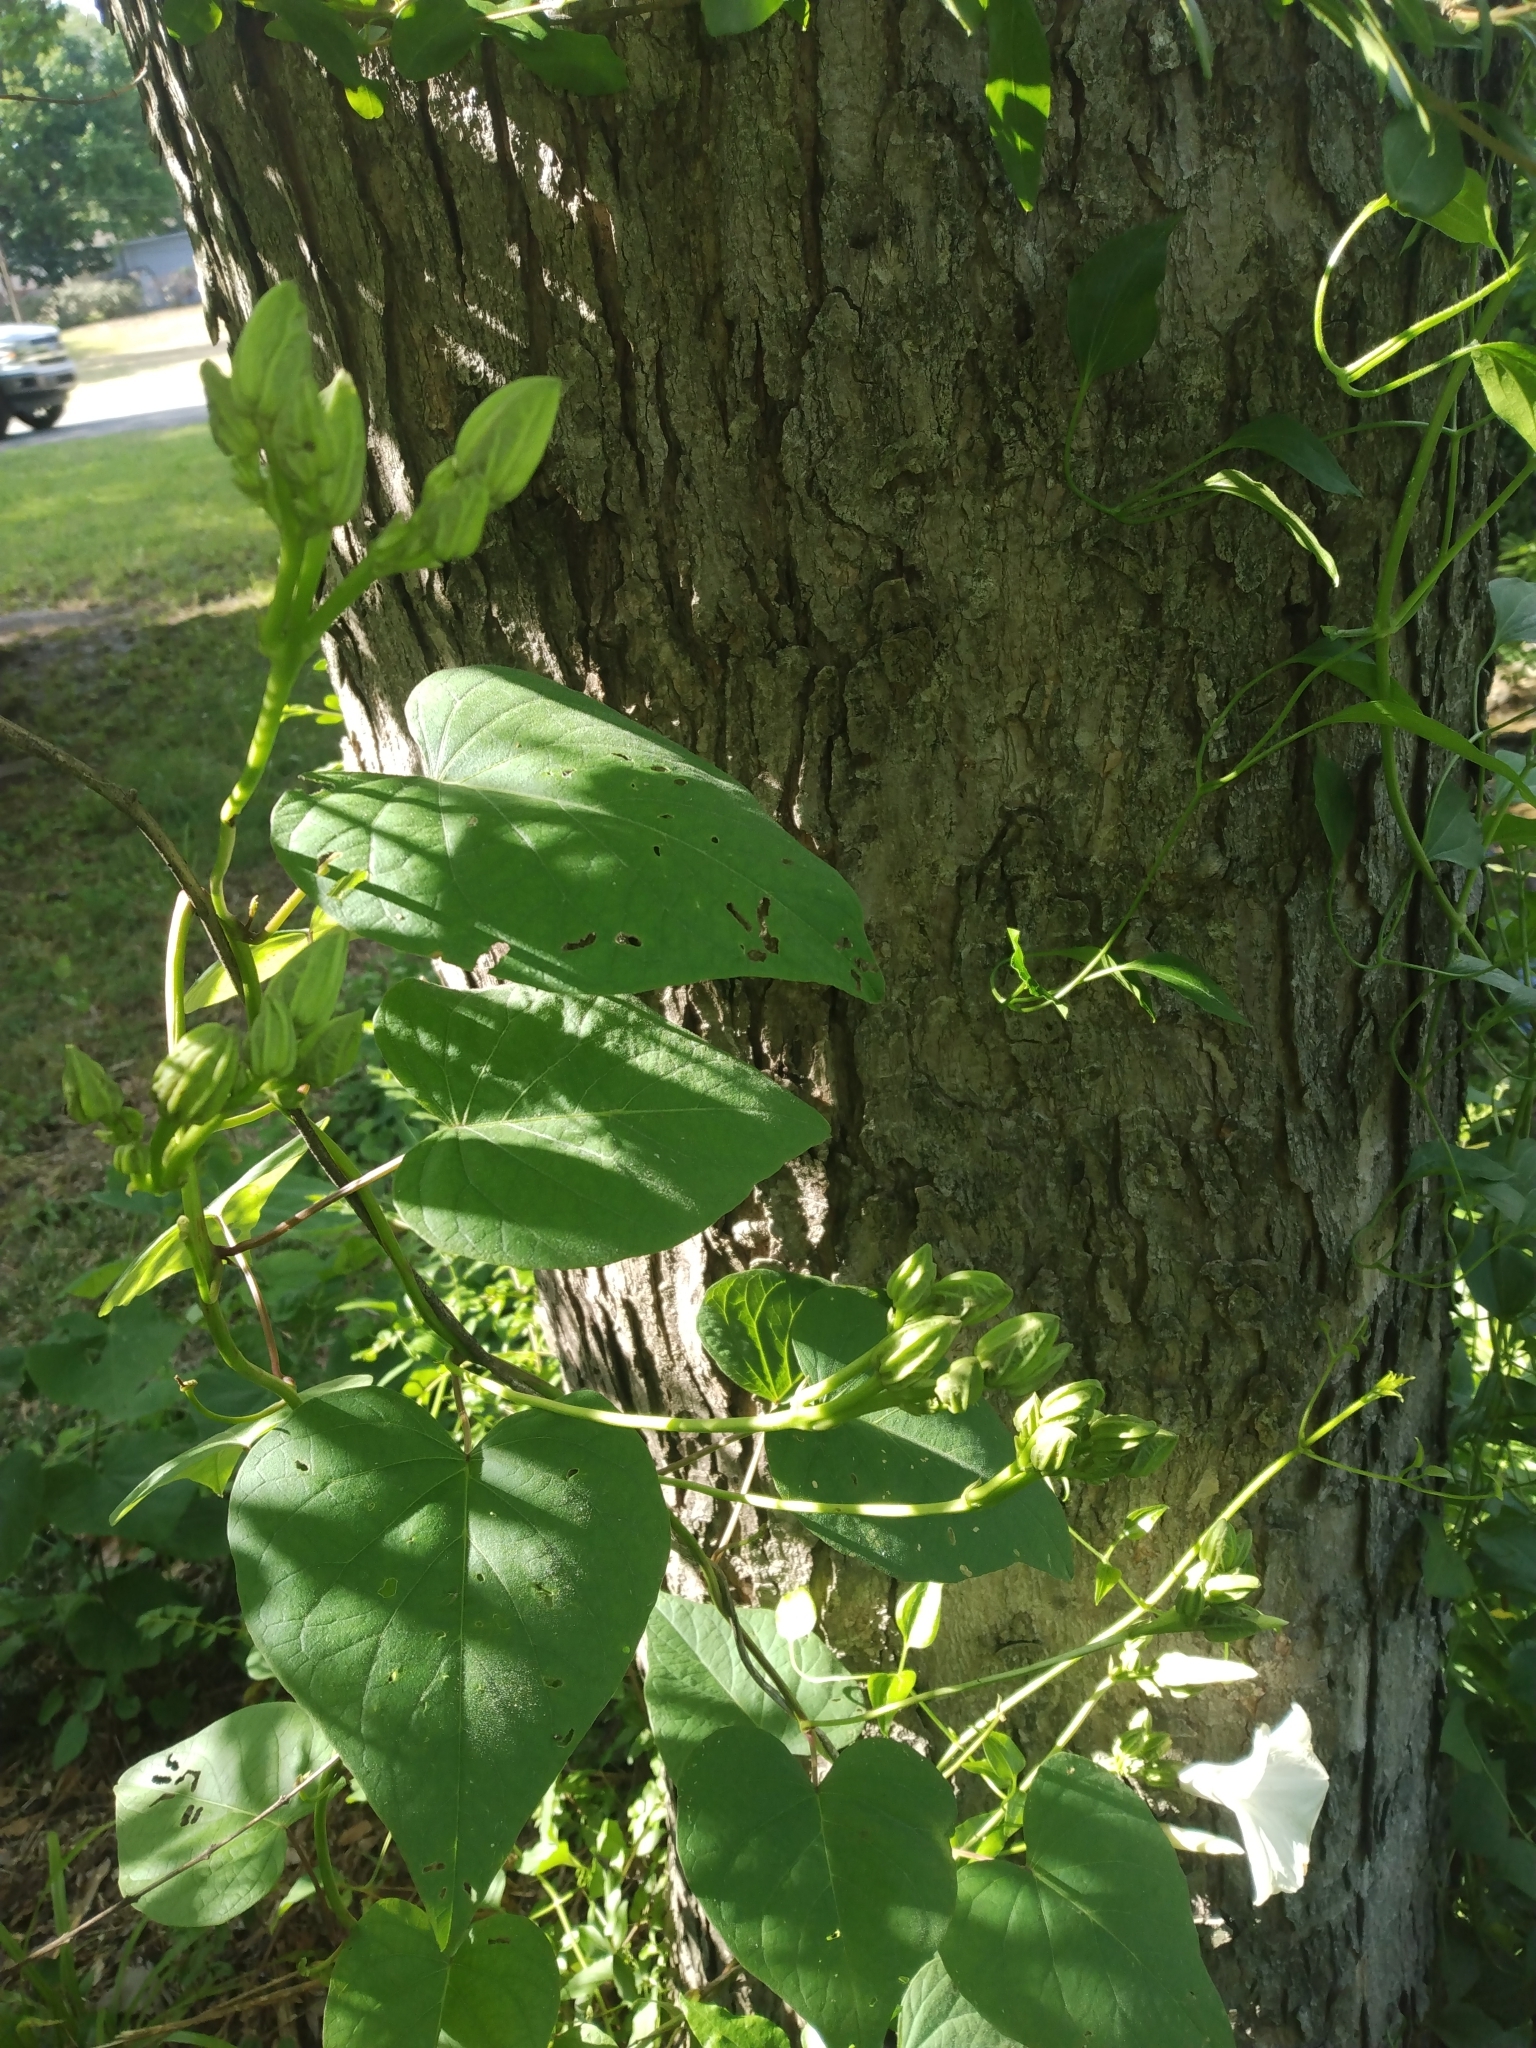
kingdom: Plantae
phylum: Tracheophyta
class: Magnoliopsida
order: Solanales
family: Convolvulaceae
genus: Ipomoea
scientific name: Ipomoea pandurata
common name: Man-of-the-earth
